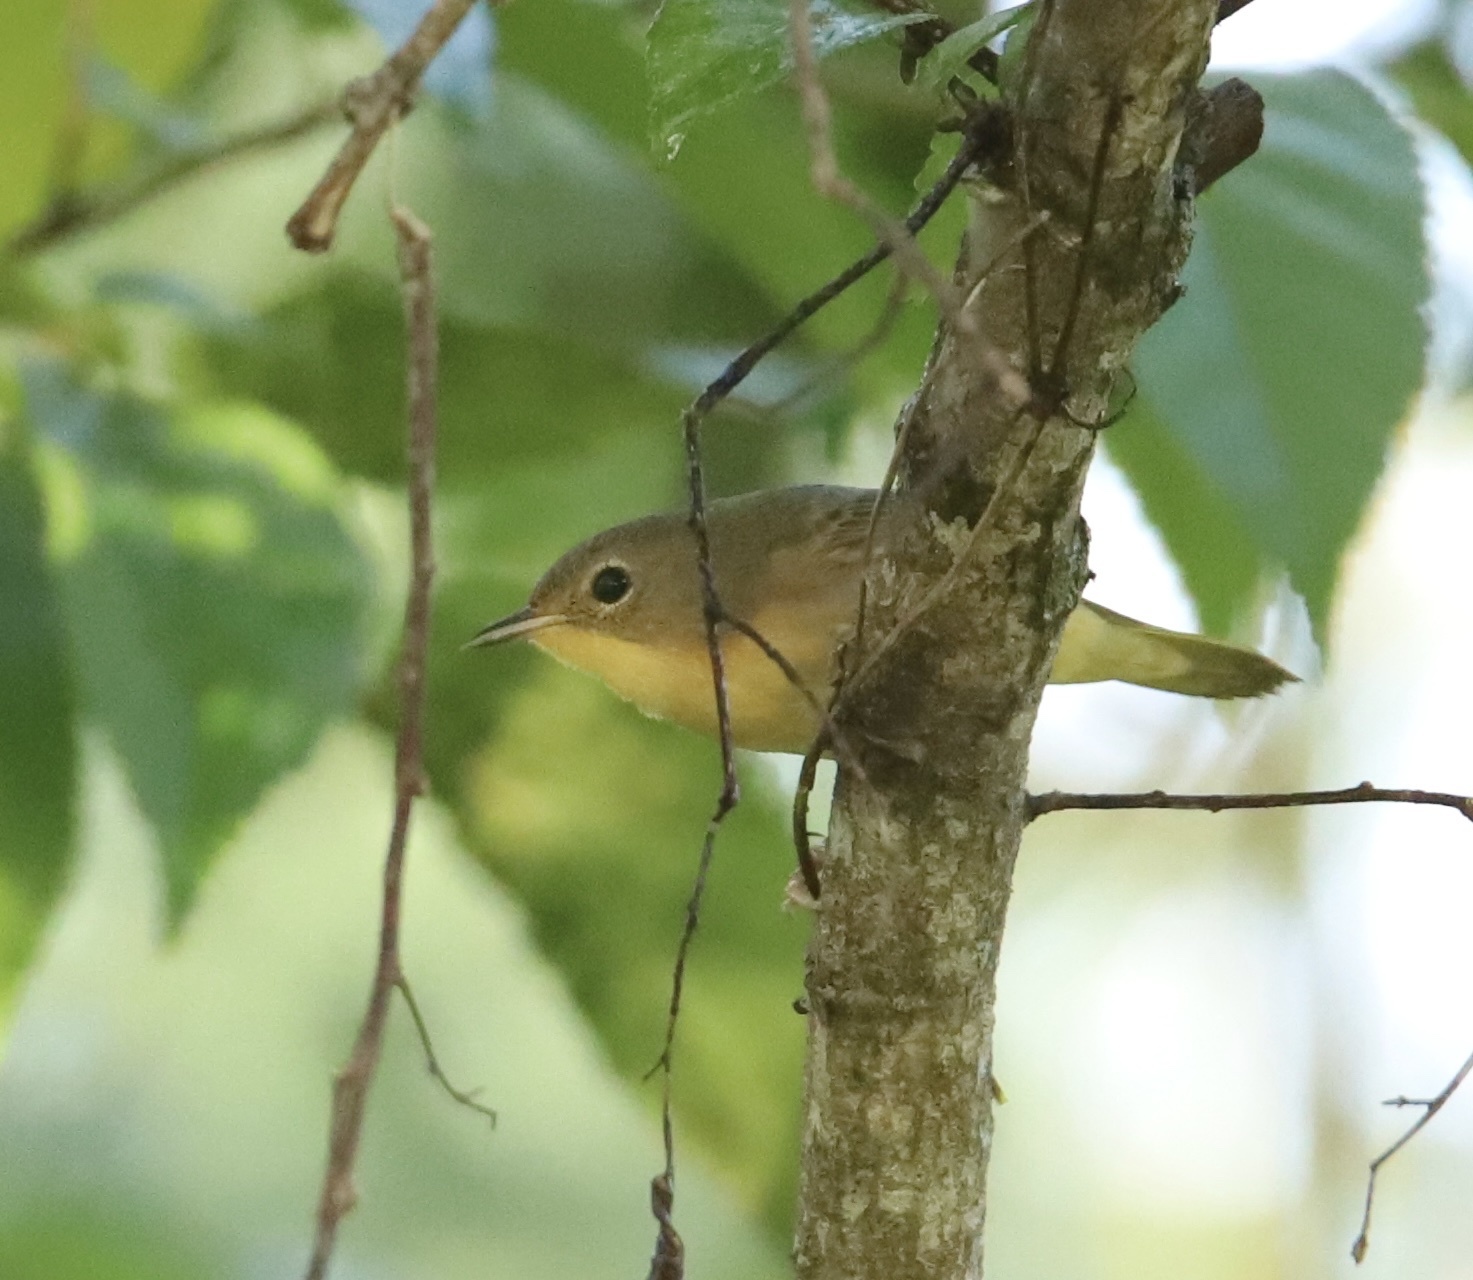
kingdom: Animalia
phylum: Chordata
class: Aves
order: Passeriformes
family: Parulidae
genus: Geothlypis
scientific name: Geothlypis trichas
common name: Common yellowthroat
